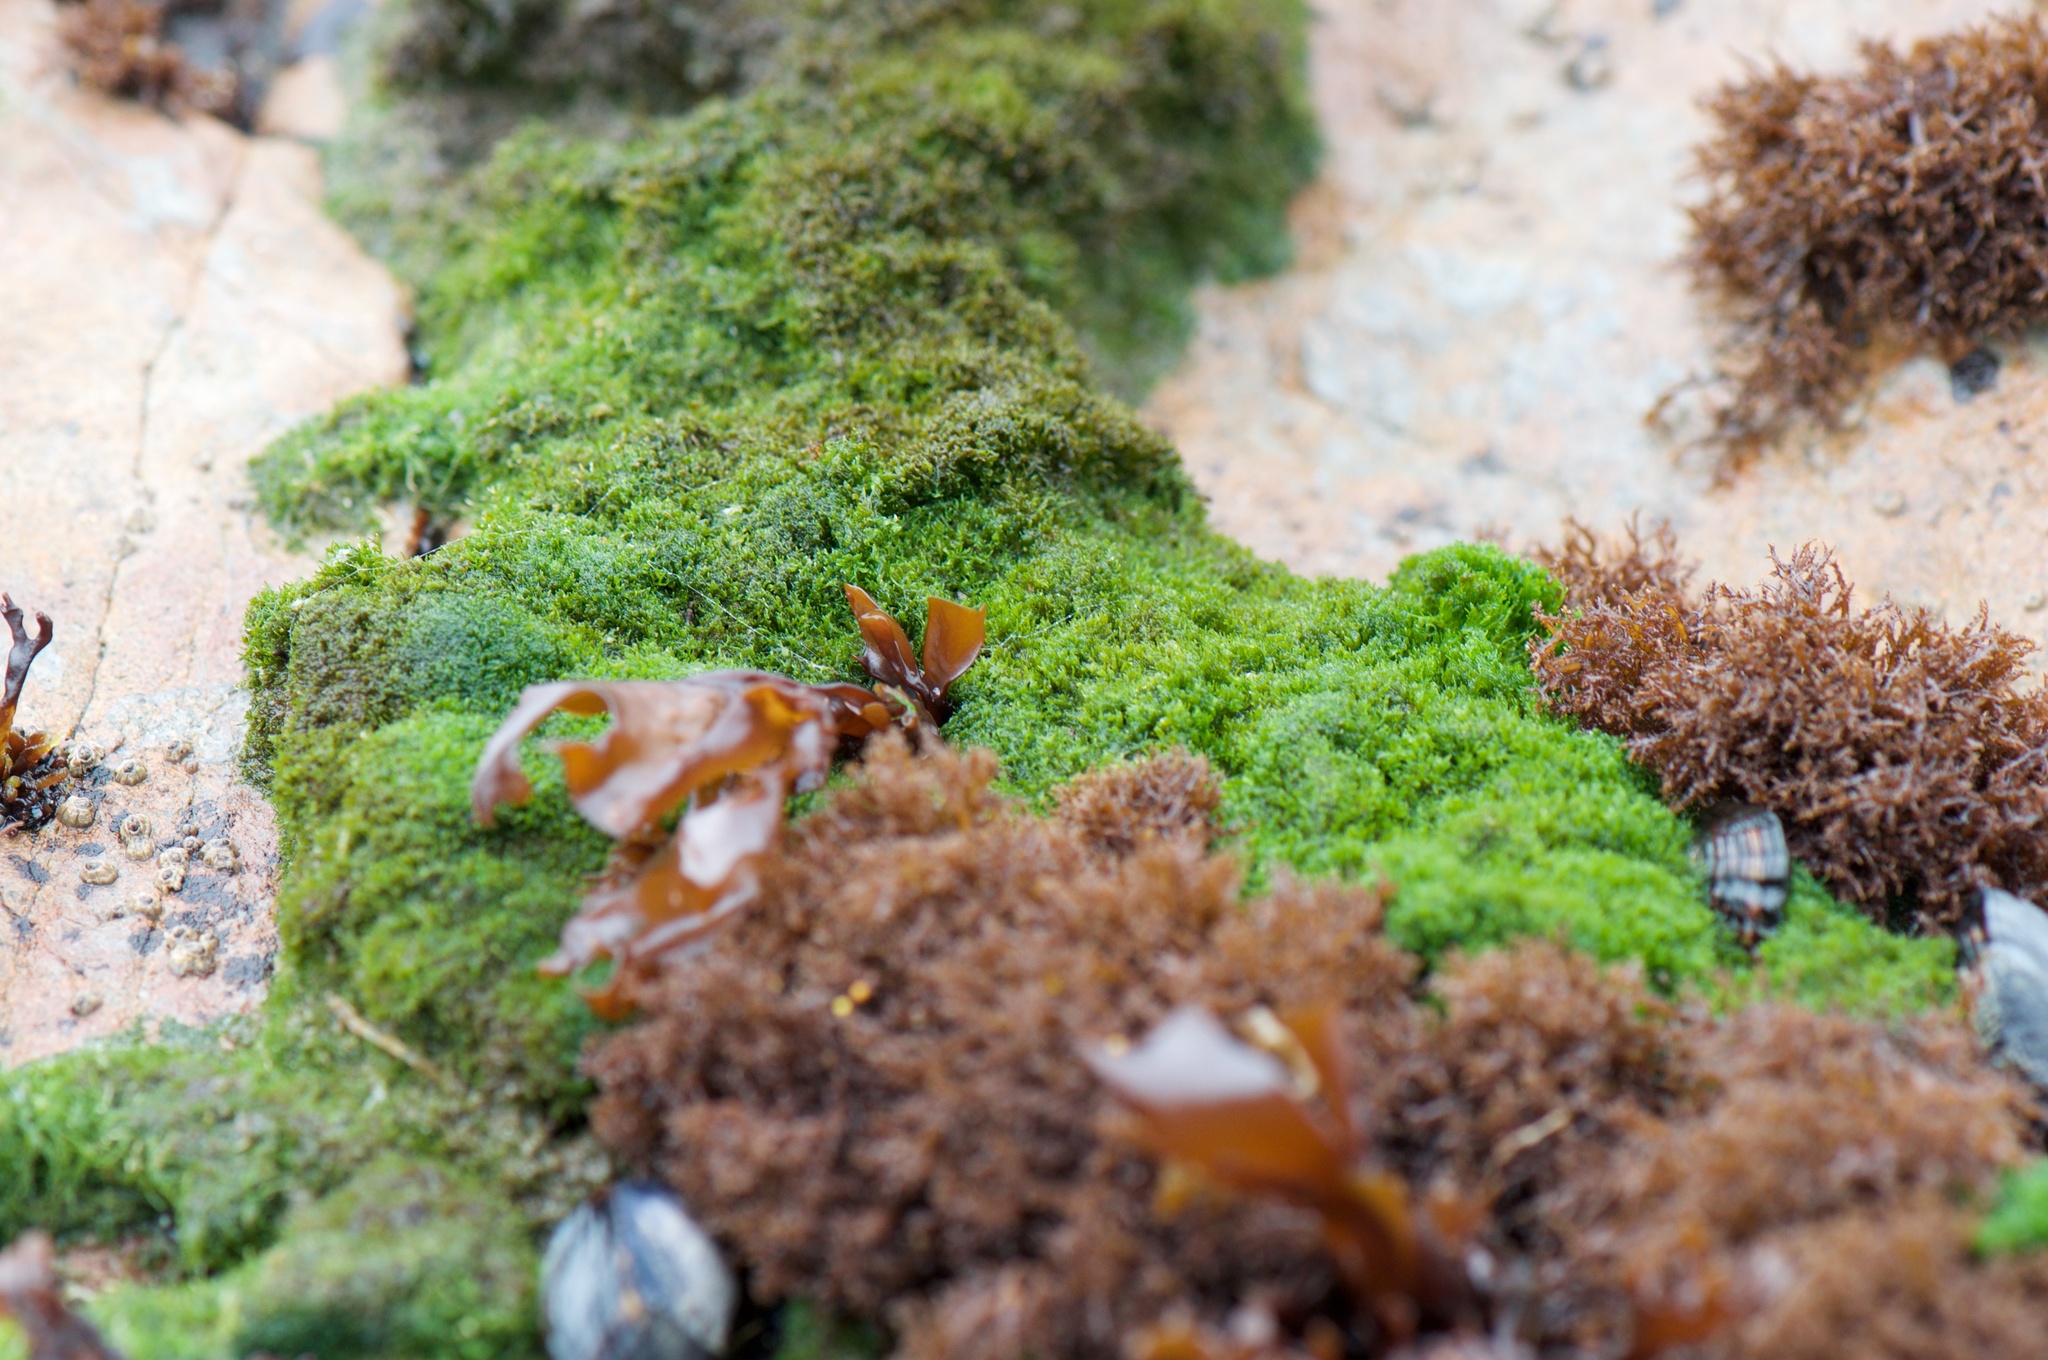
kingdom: Plantae
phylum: Chlorophyta
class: Ulvophyceae
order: Cladophorales
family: Cladophoraceae
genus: Cladophora
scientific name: Cladophora columbiana
